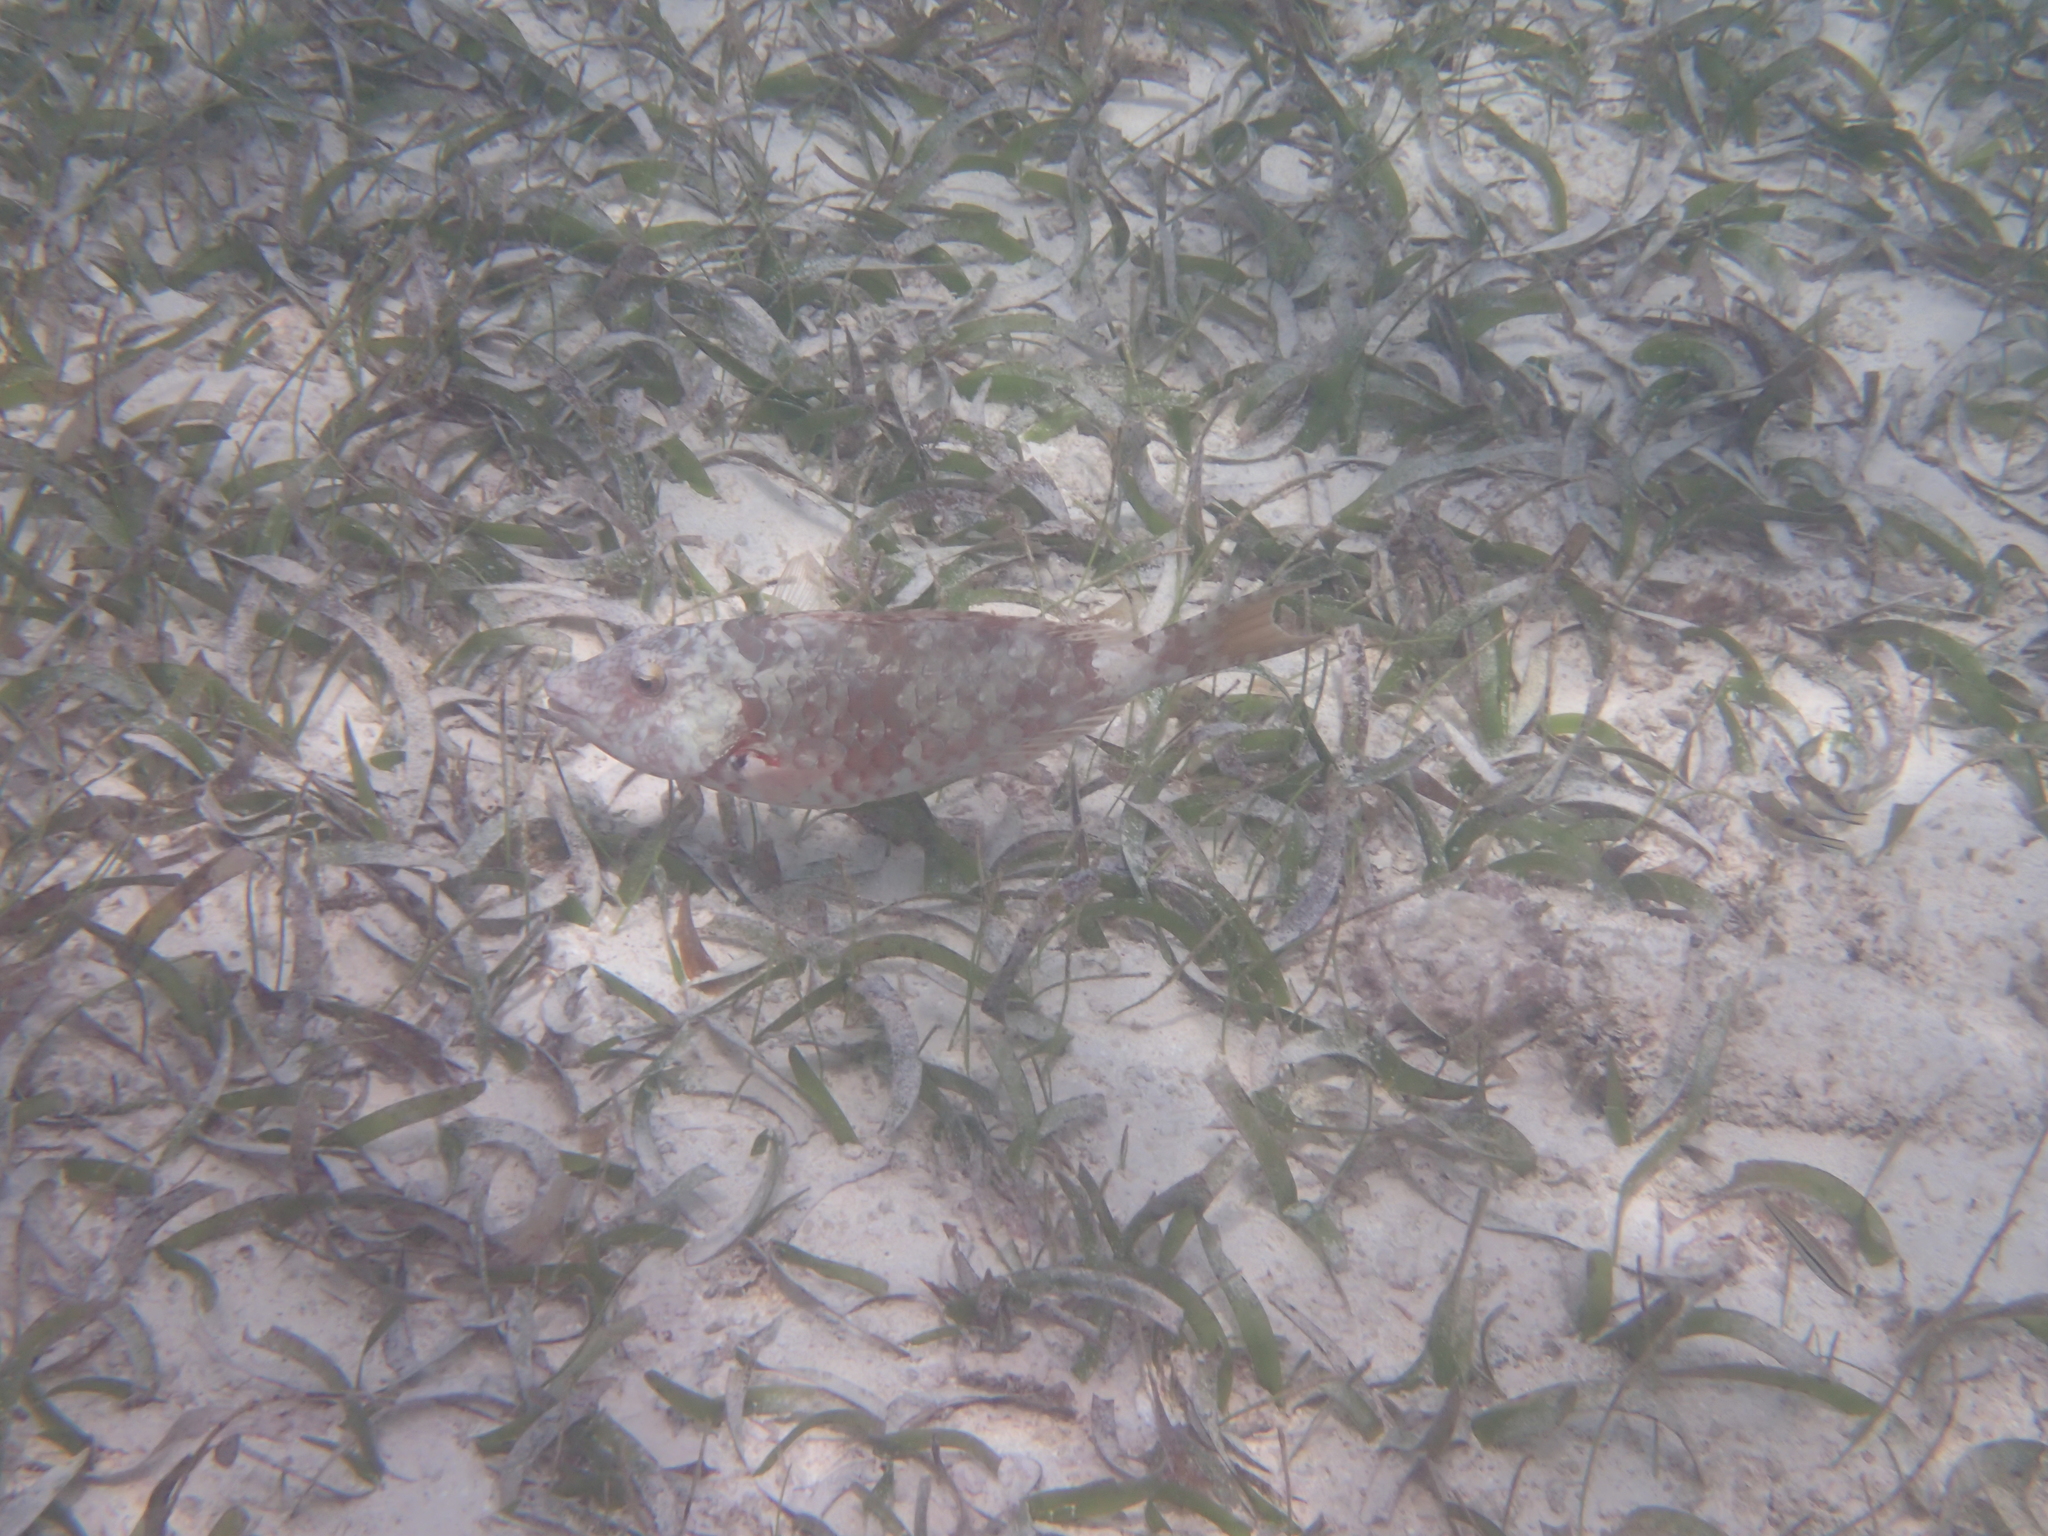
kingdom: Animalia
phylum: Chordata
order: Perciformes
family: Scaridae
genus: Sparisoma
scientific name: Sparisoma chrysopterum
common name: Redtail parrotfish
